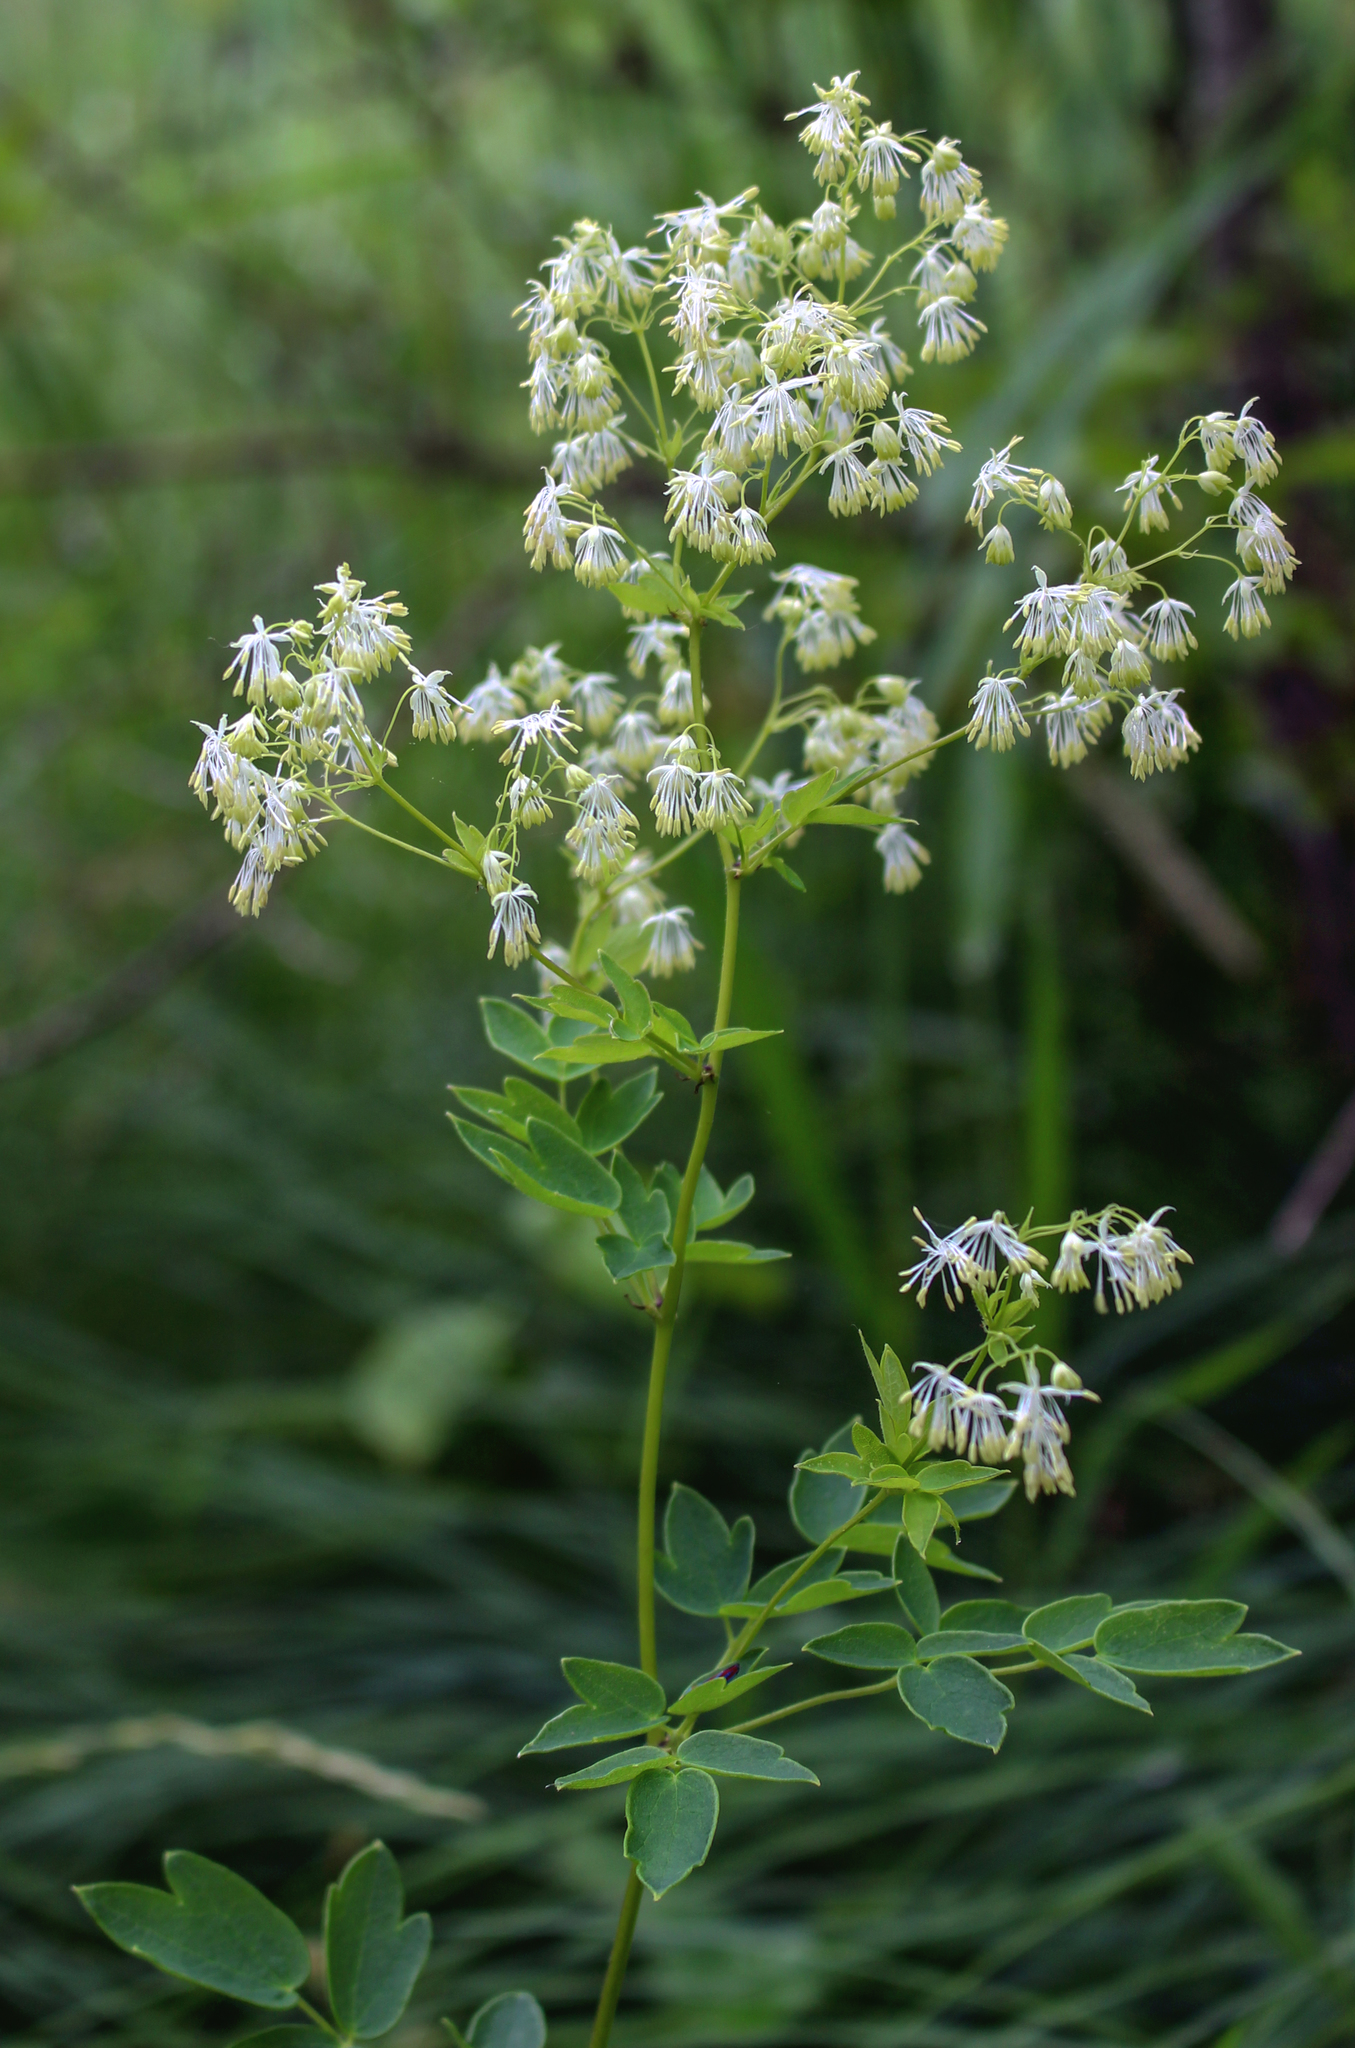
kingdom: Plantae
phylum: Tracheophyta
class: Magnoliopsida
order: Ranunculales
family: Ranunculaceae
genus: Thalictrum
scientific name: Thalictrum dasycarpum
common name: Purple meadow-rue
